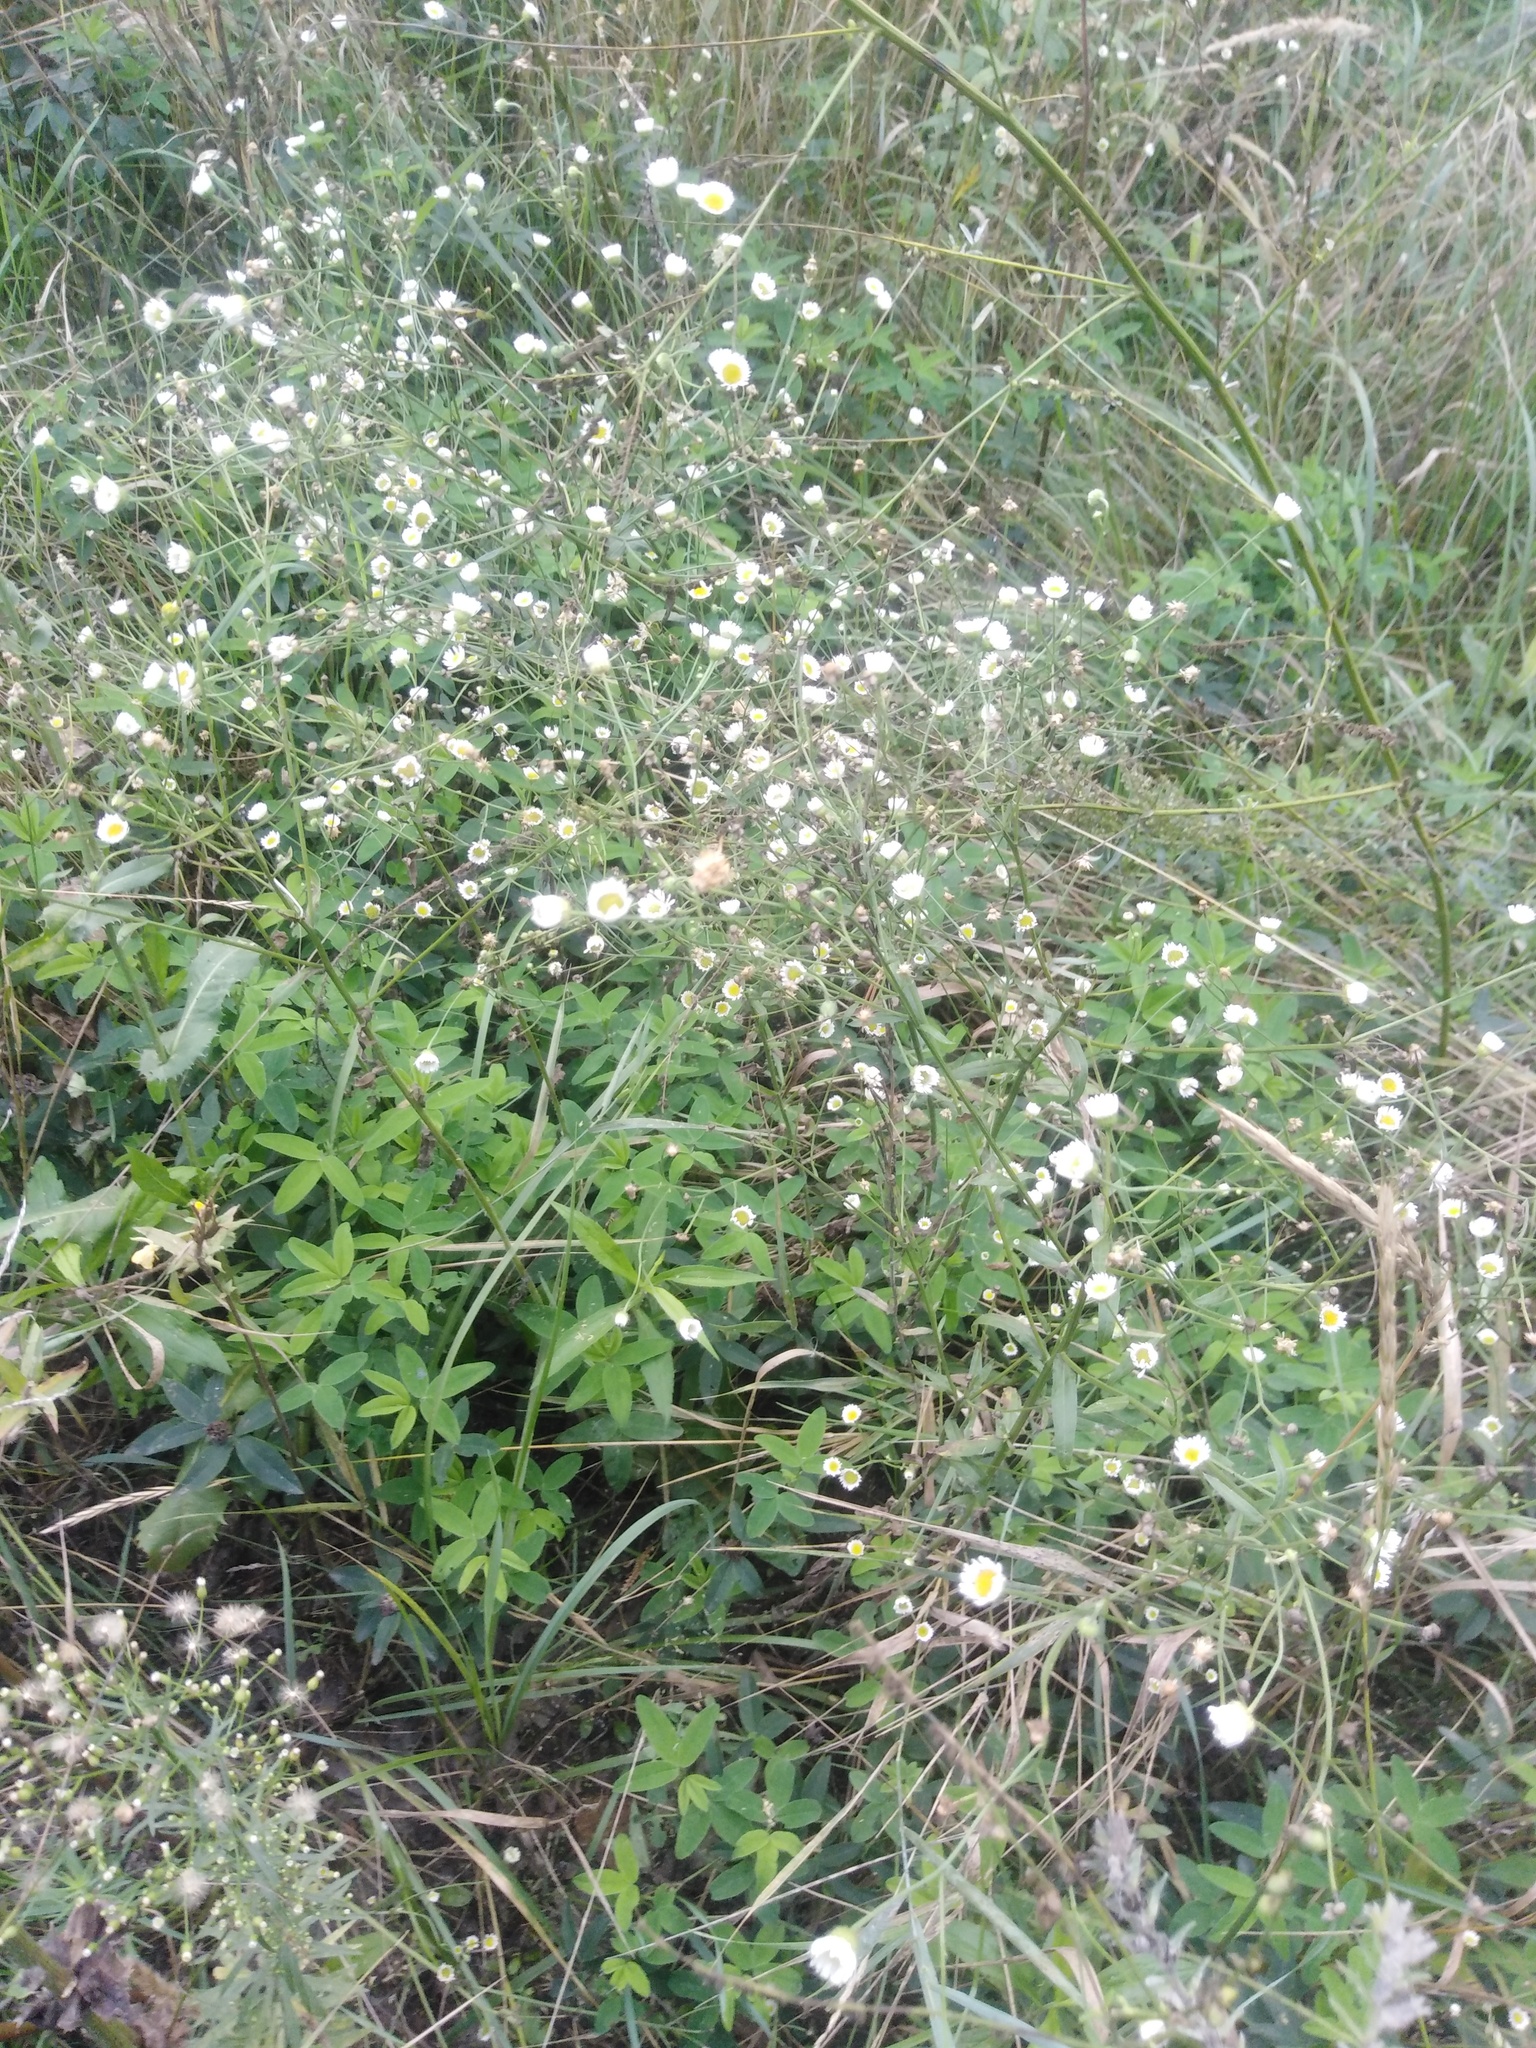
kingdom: Plantae
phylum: Tracheophyta
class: Magnoliopsida
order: Asterales
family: Asteraceae
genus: Erigeron
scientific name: Erigeron annuus
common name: Tall fleabane
